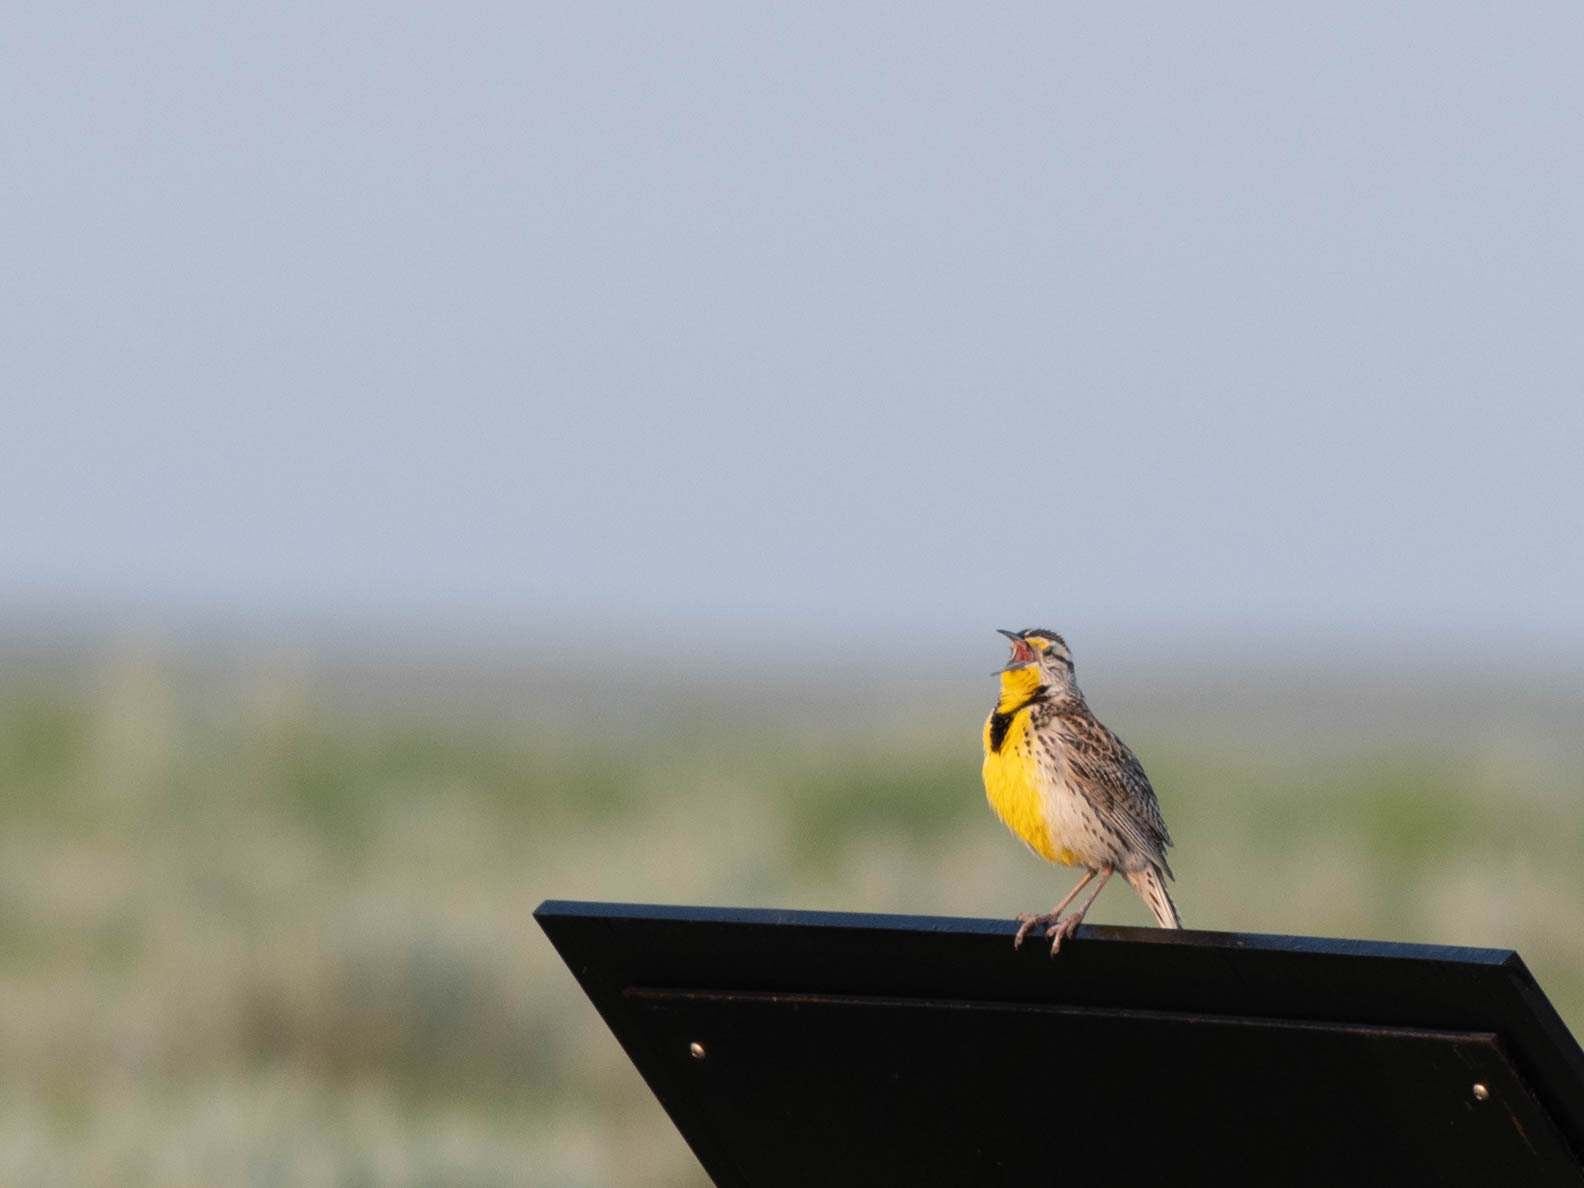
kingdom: Animalia
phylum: Chordata
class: Aves
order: Passeriformes
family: Icteridae
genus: Sturnella
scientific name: Sturnella neglecta
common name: Western meadowlark
